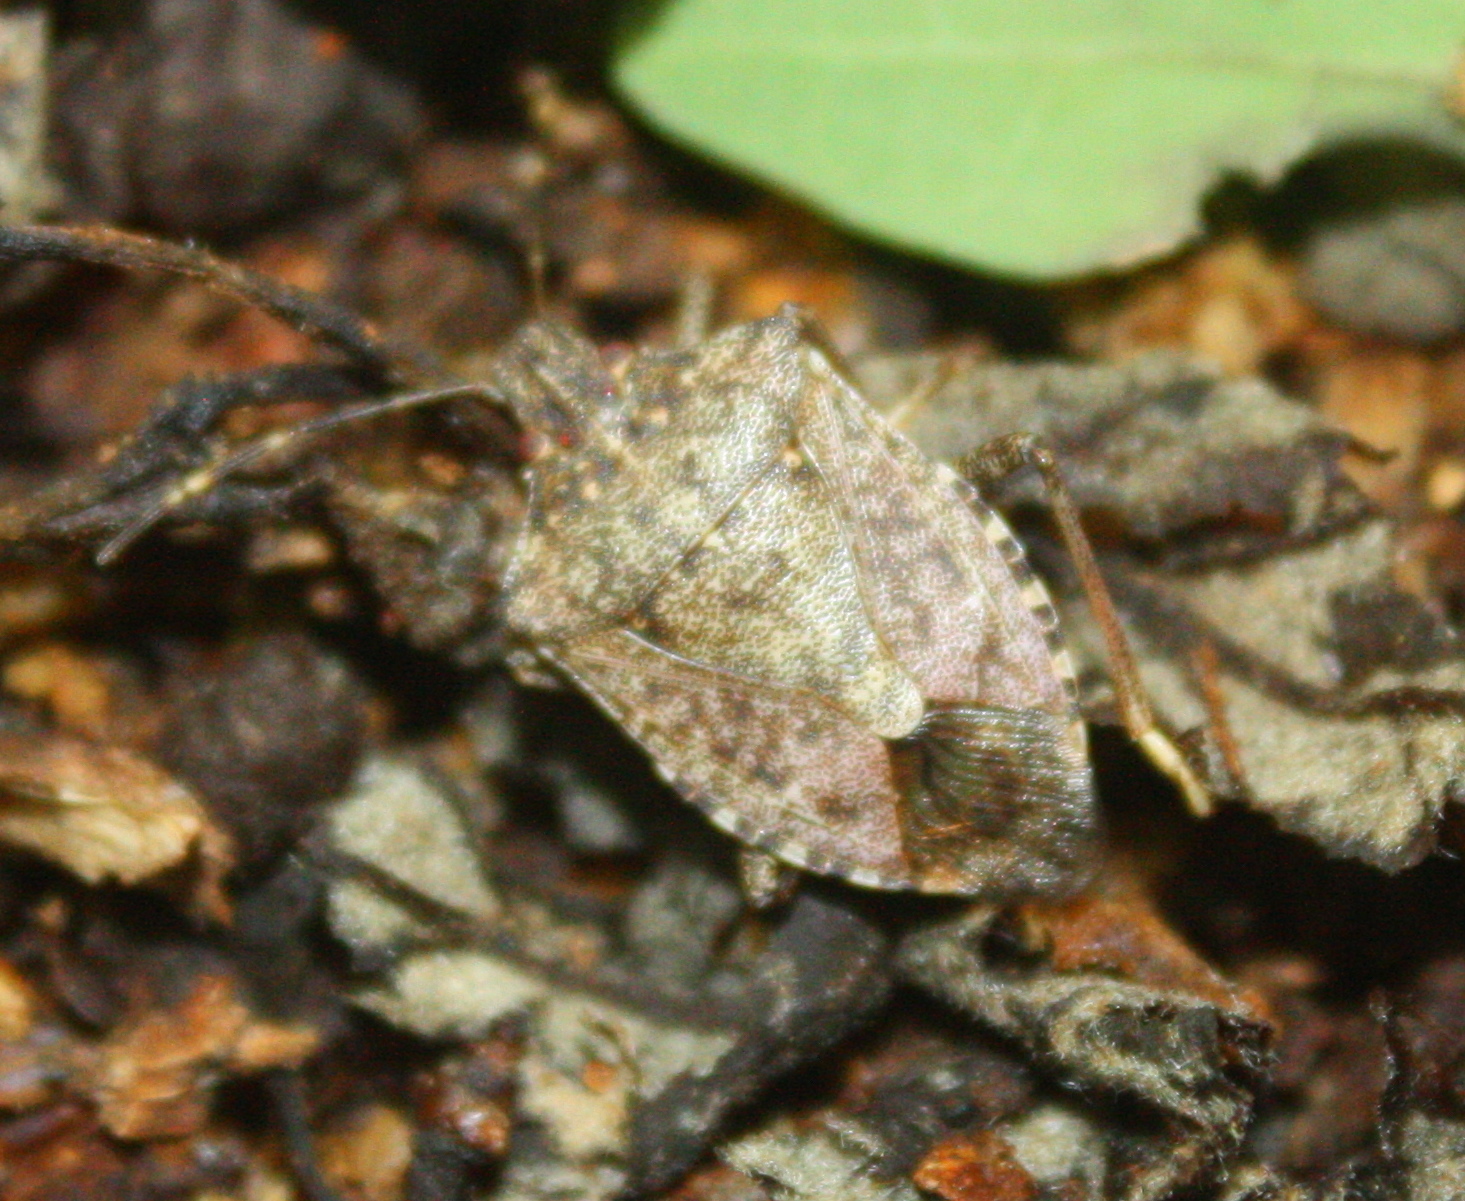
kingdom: Animalia
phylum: Arthropoda
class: Insecta
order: Hemiptera
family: Pentatomidae
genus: Halyomorpha
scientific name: Halyomorpha halys
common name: Brown marmorated stink bug
